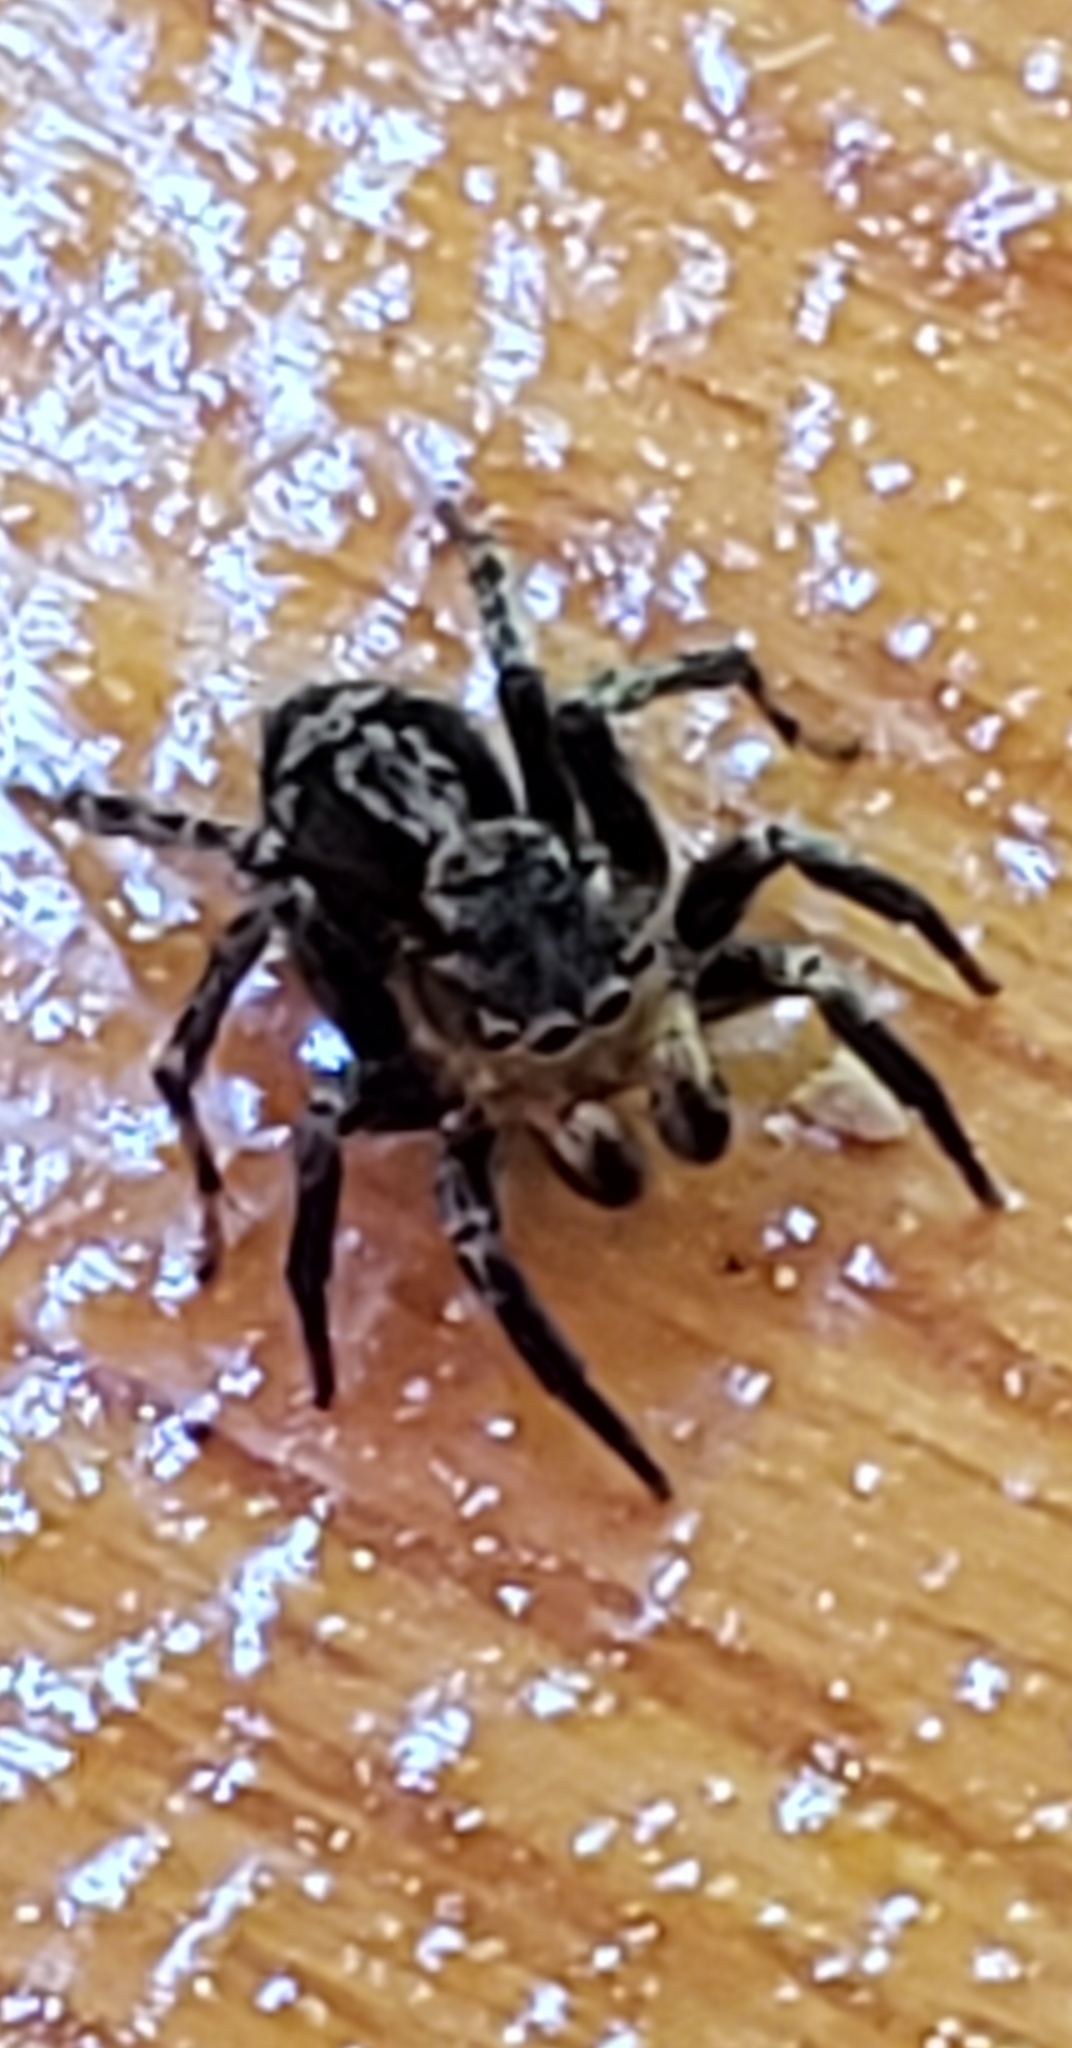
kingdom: Animalia
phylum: Arthropoda
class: Arachnida
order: Araneae
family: Salticidae
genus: Naphrys
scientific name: Naphrys pulex
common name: Flea jumping spider
